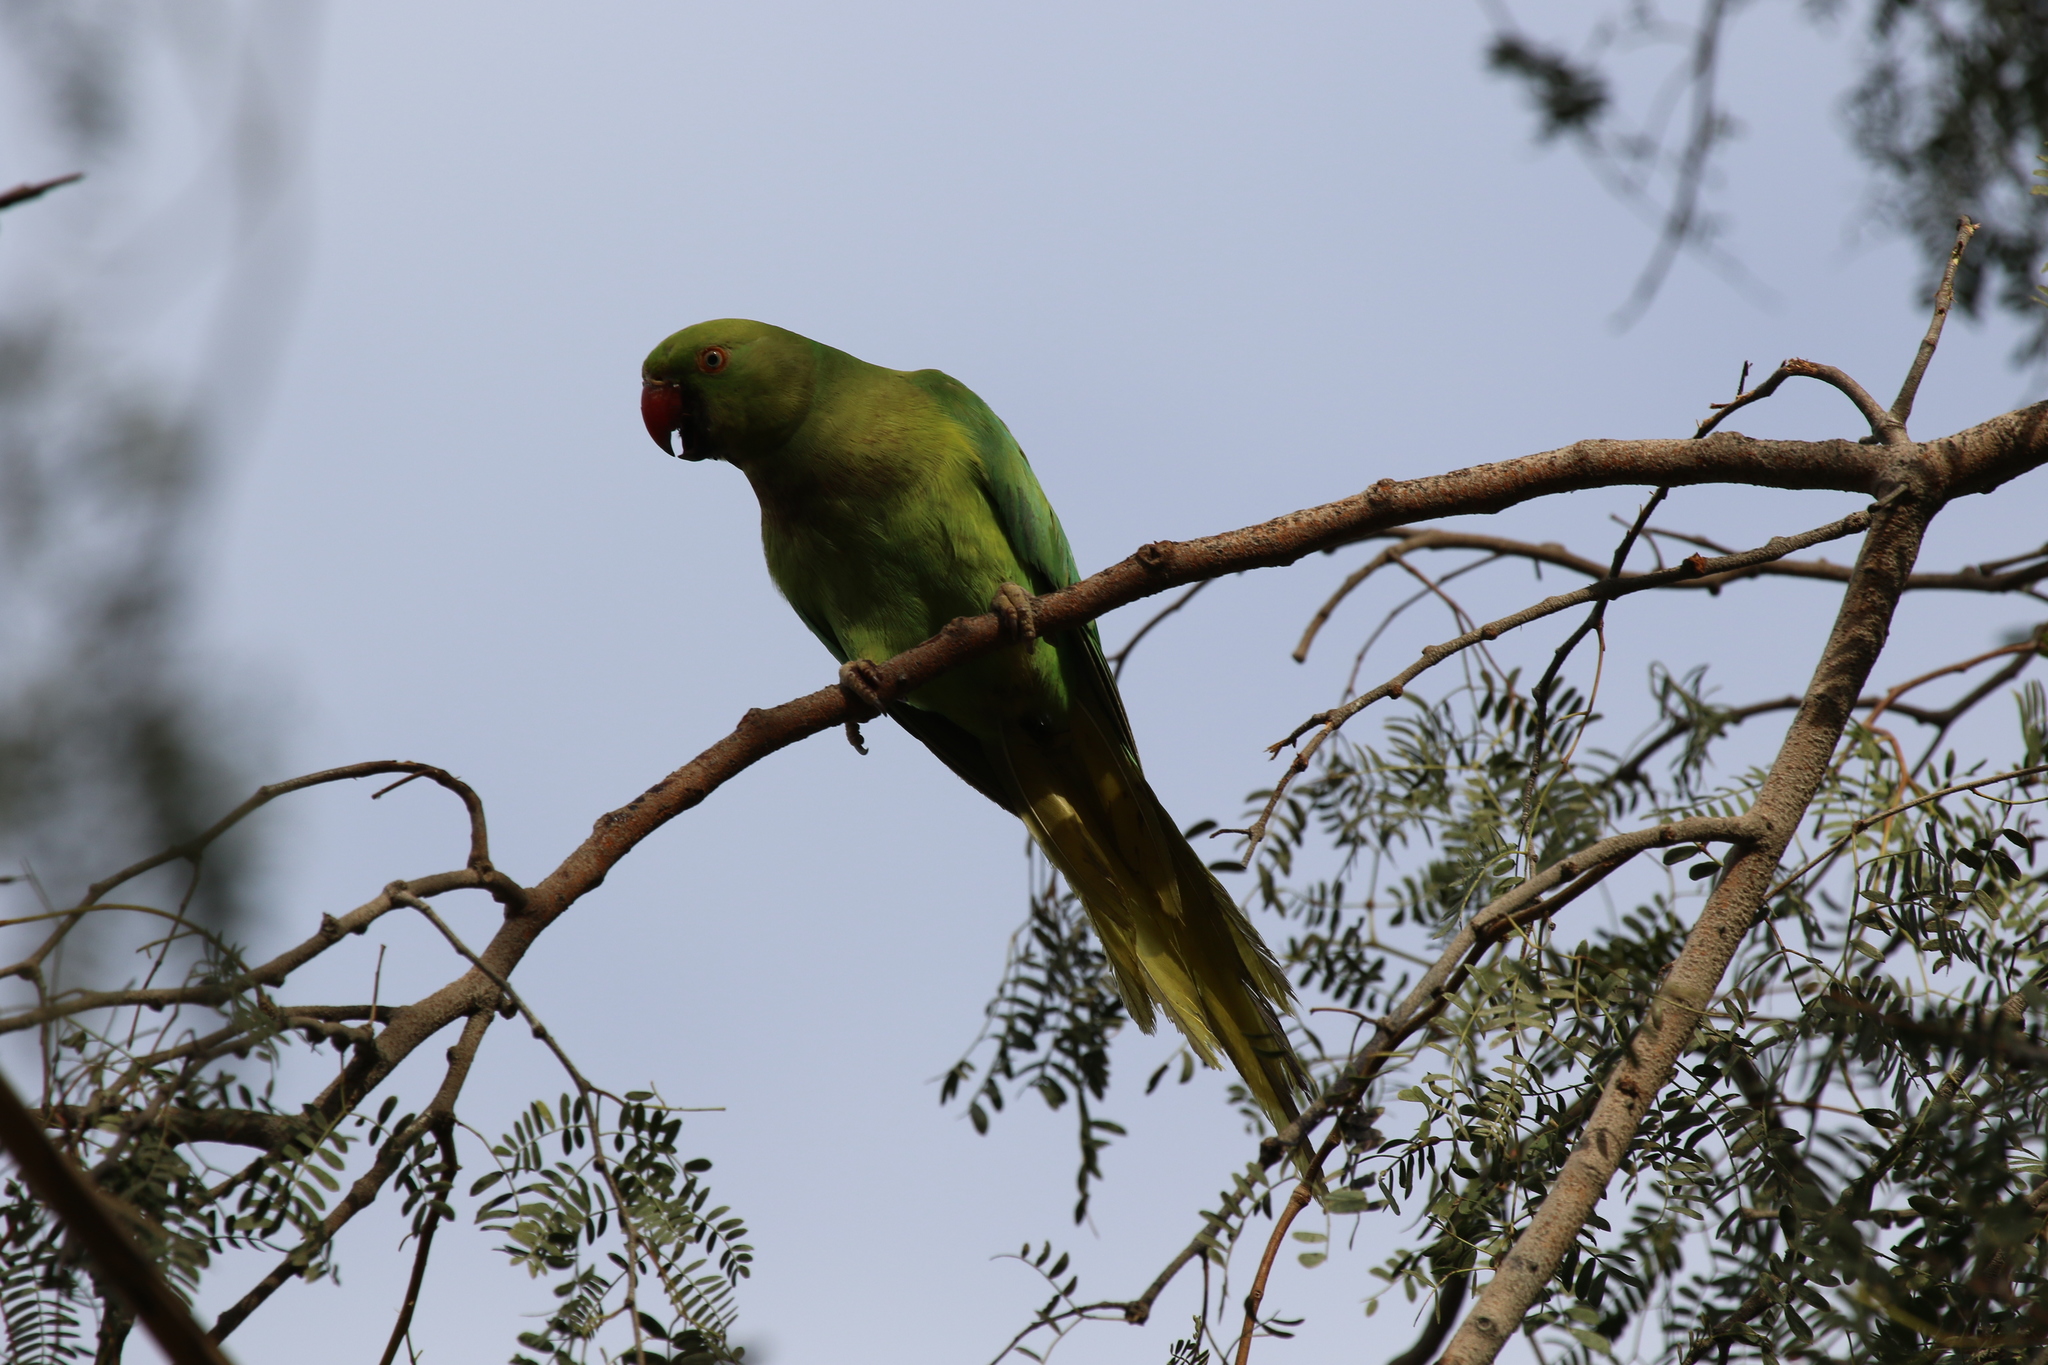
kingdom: Animalia
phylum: Chordata
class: Aves
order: Psittaciformes
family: Psittacidae
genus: Psittacula
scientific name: Psittacula krameri
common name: Rose-ringed parakeet
